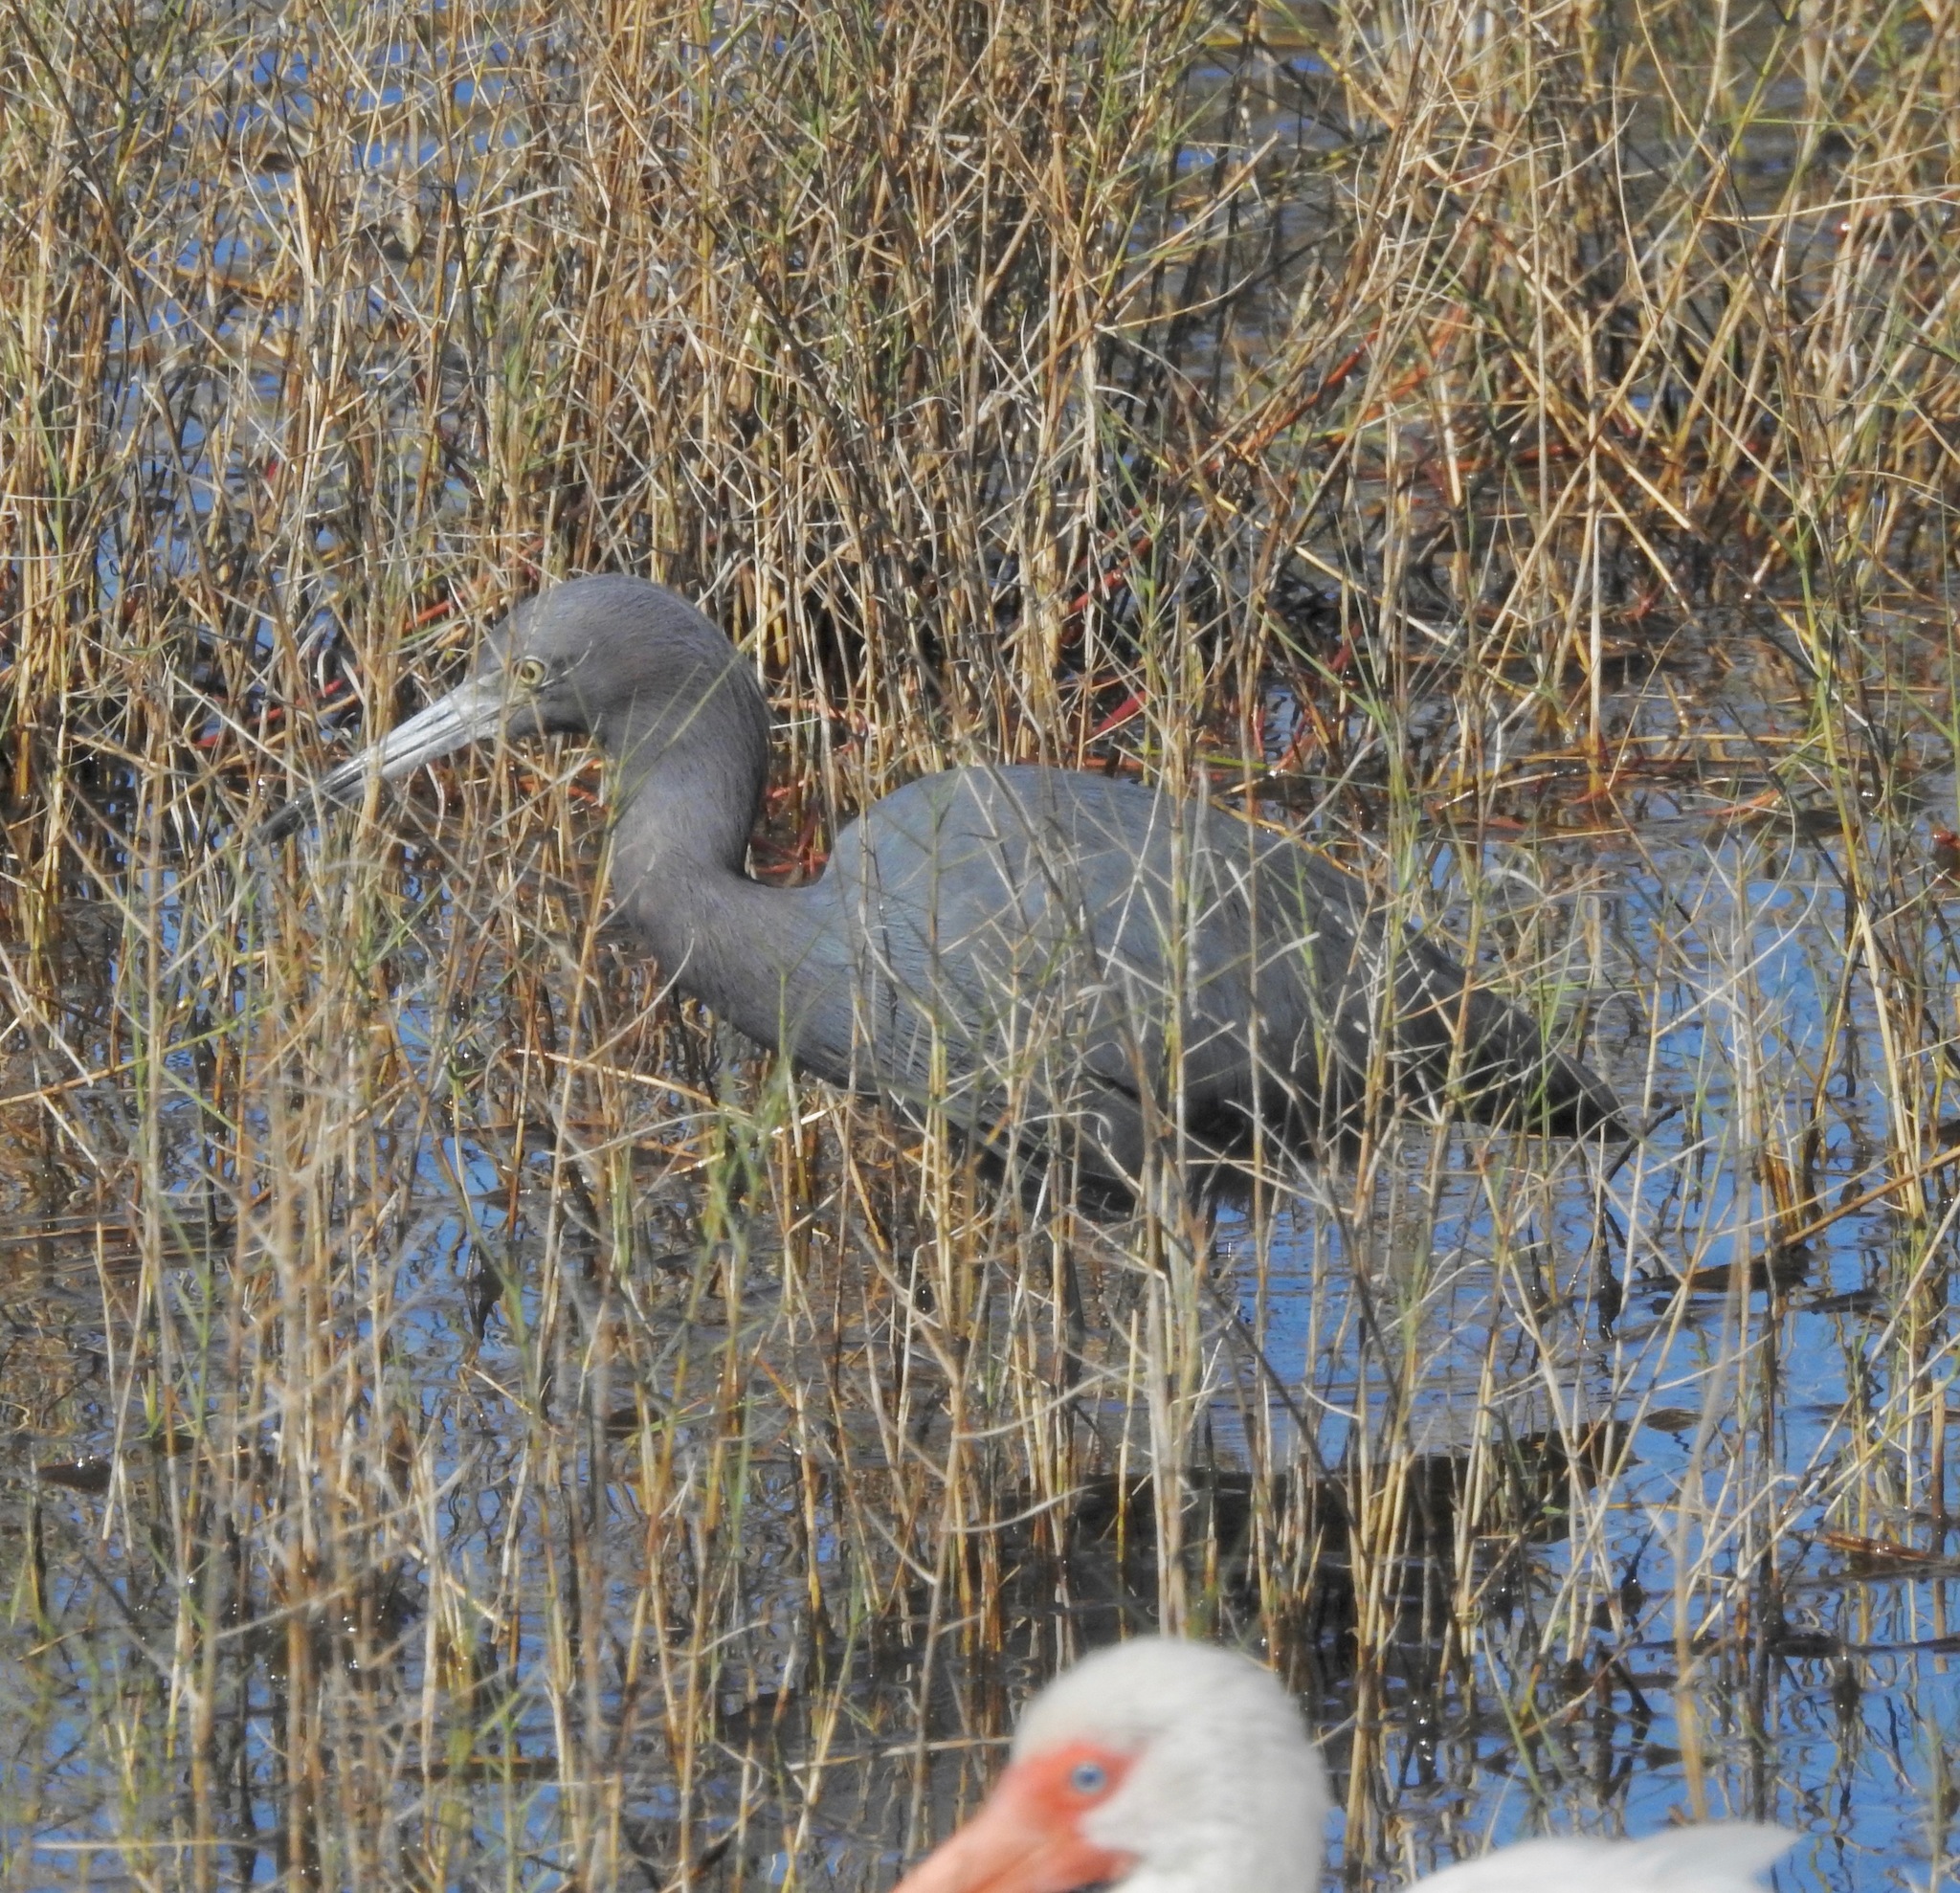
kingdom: Animalia
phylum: Chordata
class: Aves
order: Pelecaniformes
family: Ardeidae
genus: Egretta
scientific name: Egretta caerulea
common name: Little blue heron
